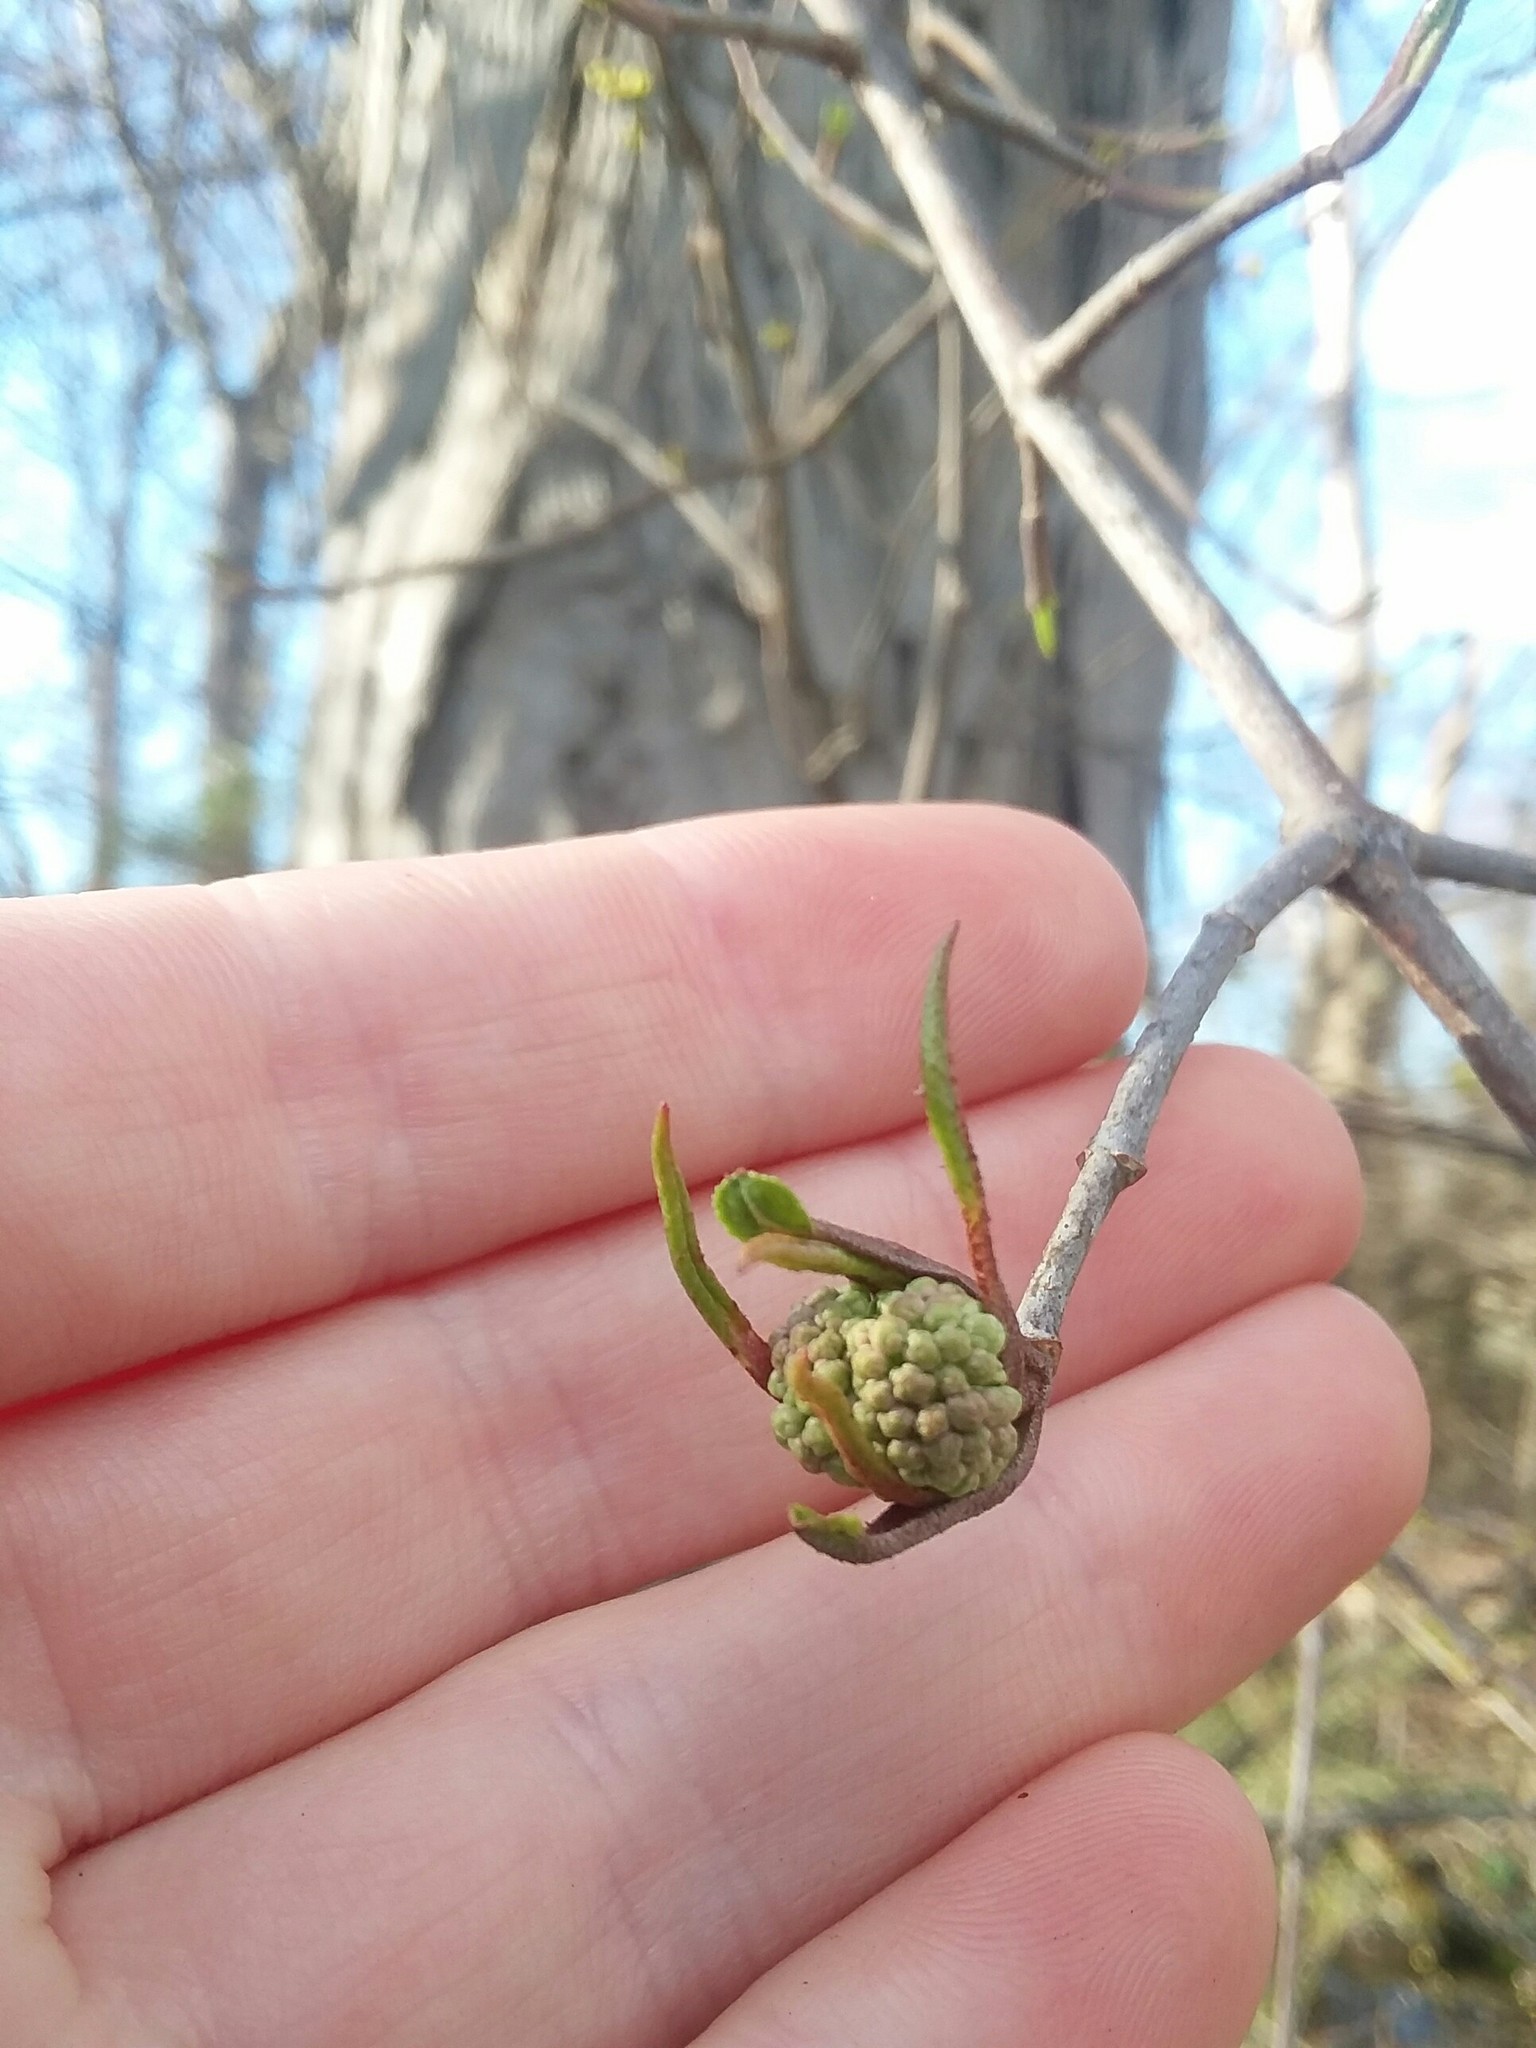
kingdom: Plantae
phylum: Tracheophyta
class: Magnoliopsida
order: Cornales
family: Cornaceae
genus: Cornus
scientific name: Cornus florida
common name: Flowering dogwood
